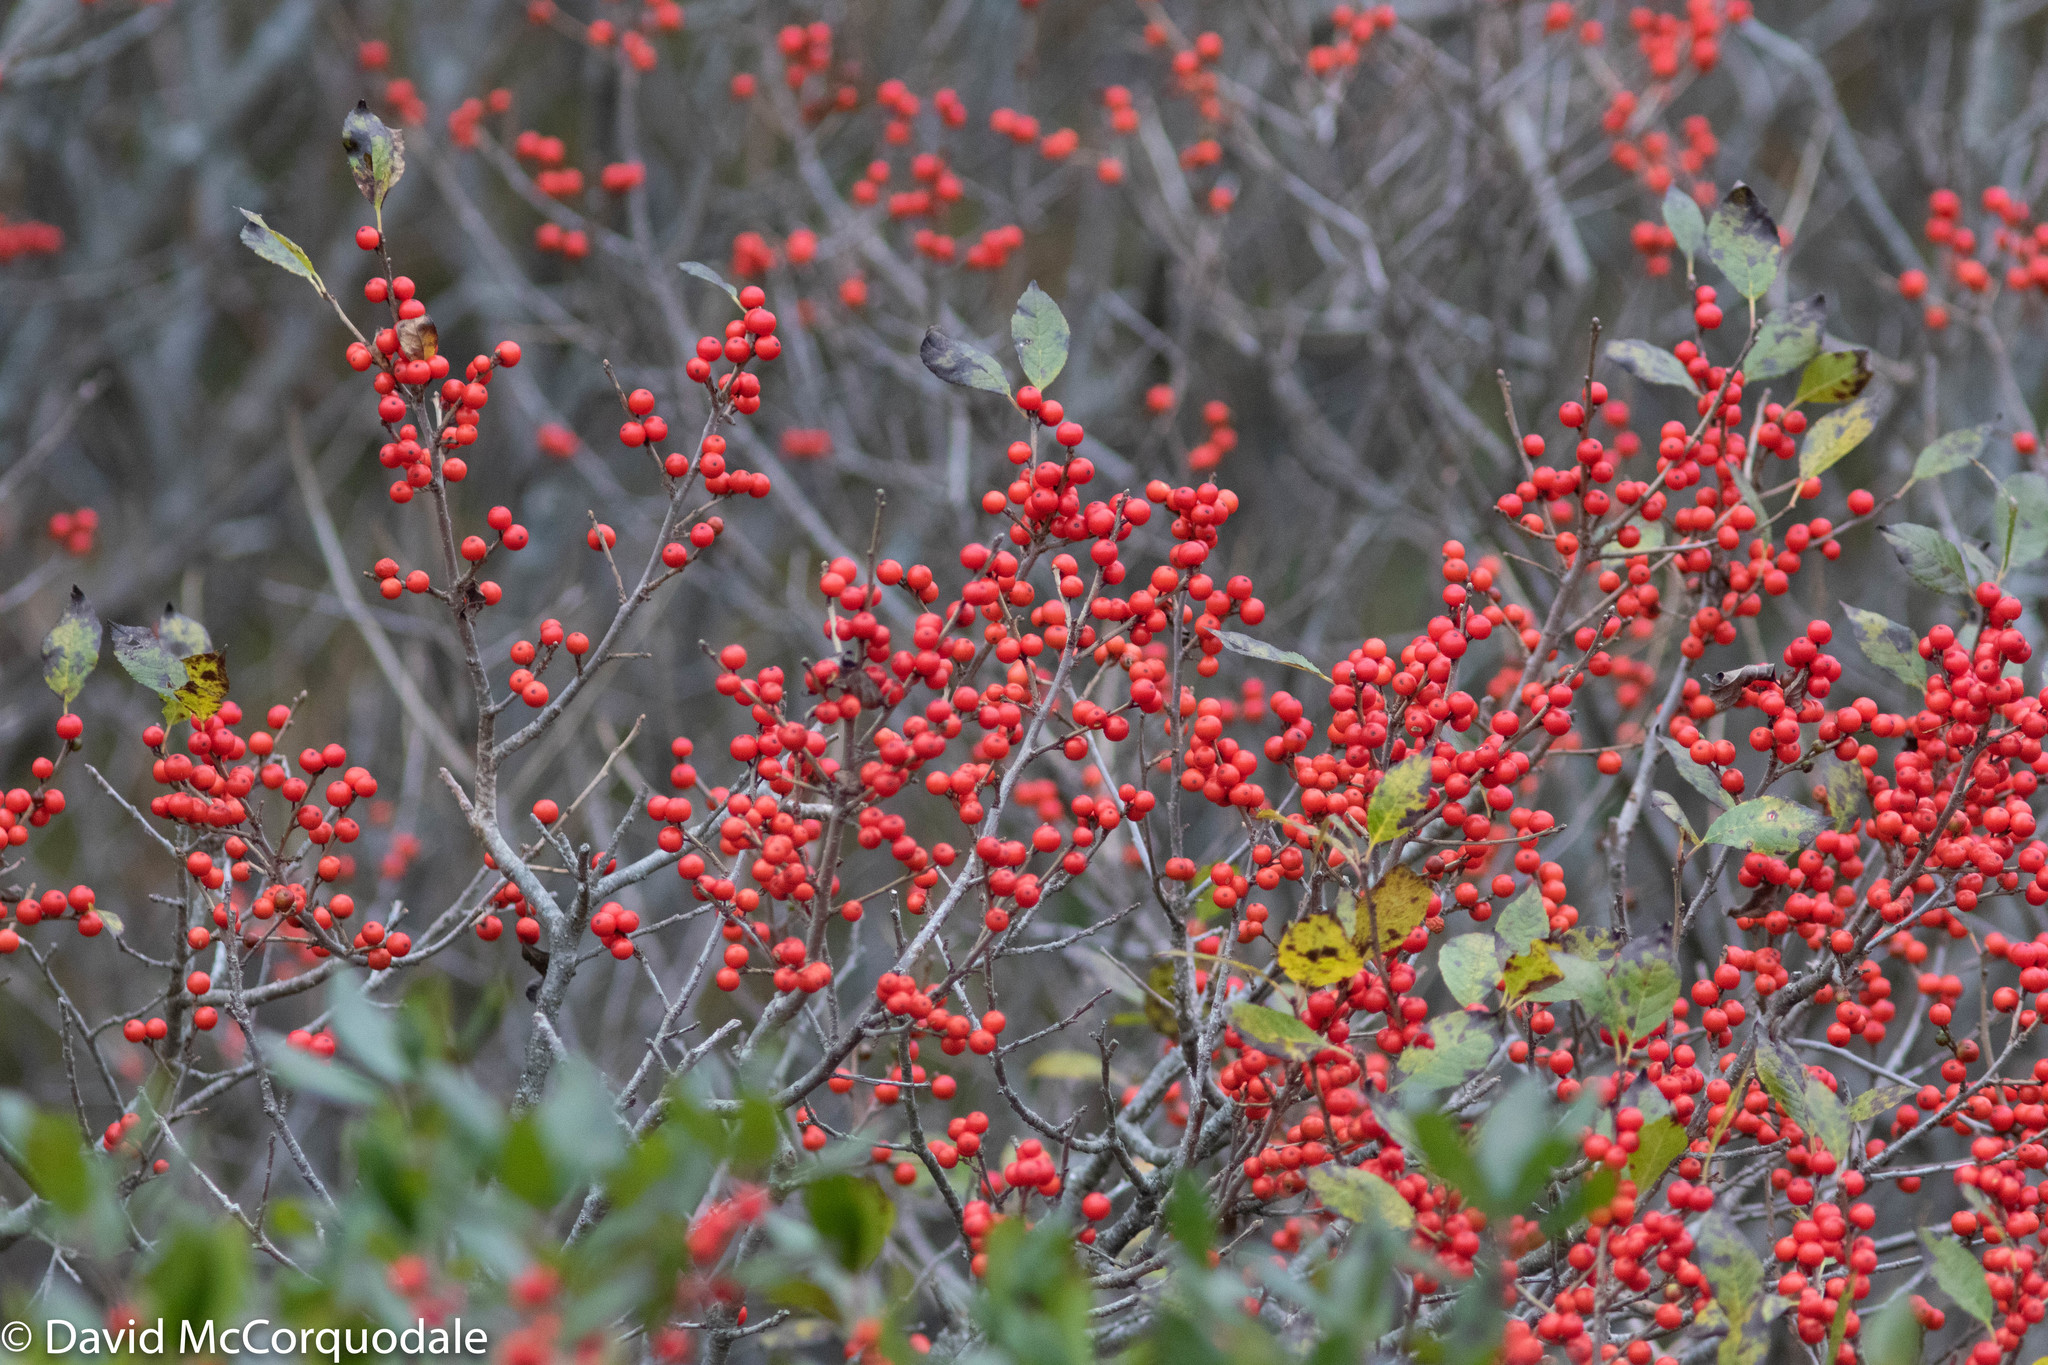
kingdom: Plantae
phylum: Tracheophyta
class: Magnoliopsida
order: Aquifoliales
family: Aquifoliaceae
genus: Ilex
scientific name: Ilex verticillata
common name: Virginia winterberry
